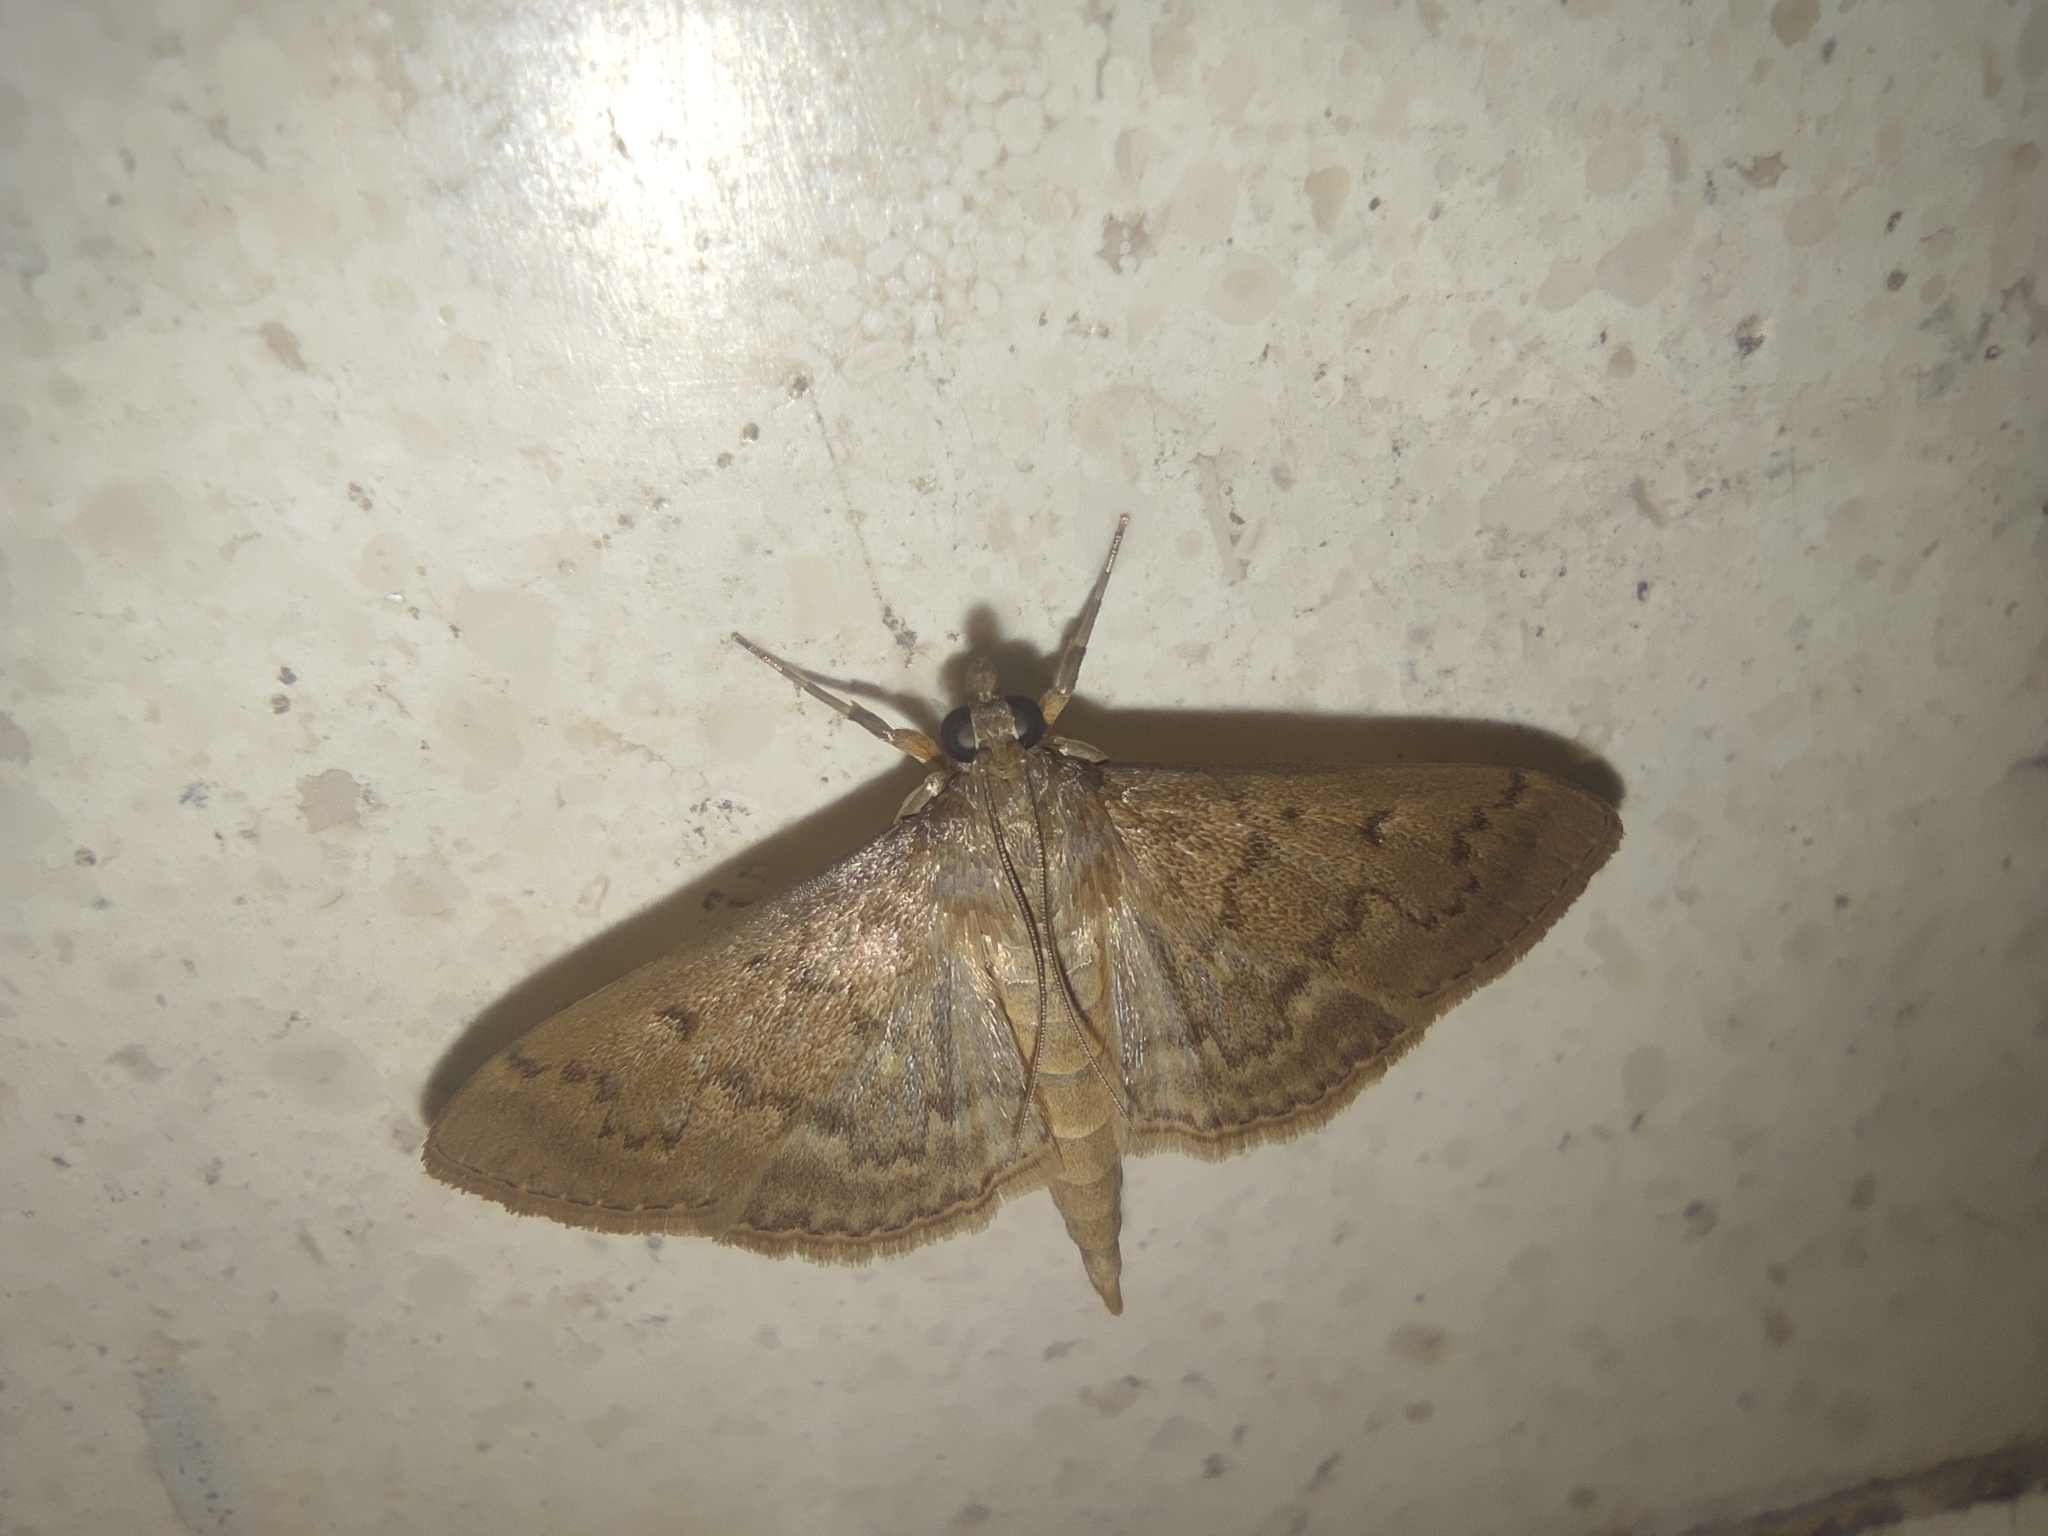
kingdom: Animalia
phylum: Arthropoda
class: Insecta
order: Lepidoptera
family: Crambidae
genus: Herpetogramma
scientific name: Herpetogramma licarsisalis
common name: Grass webworm
